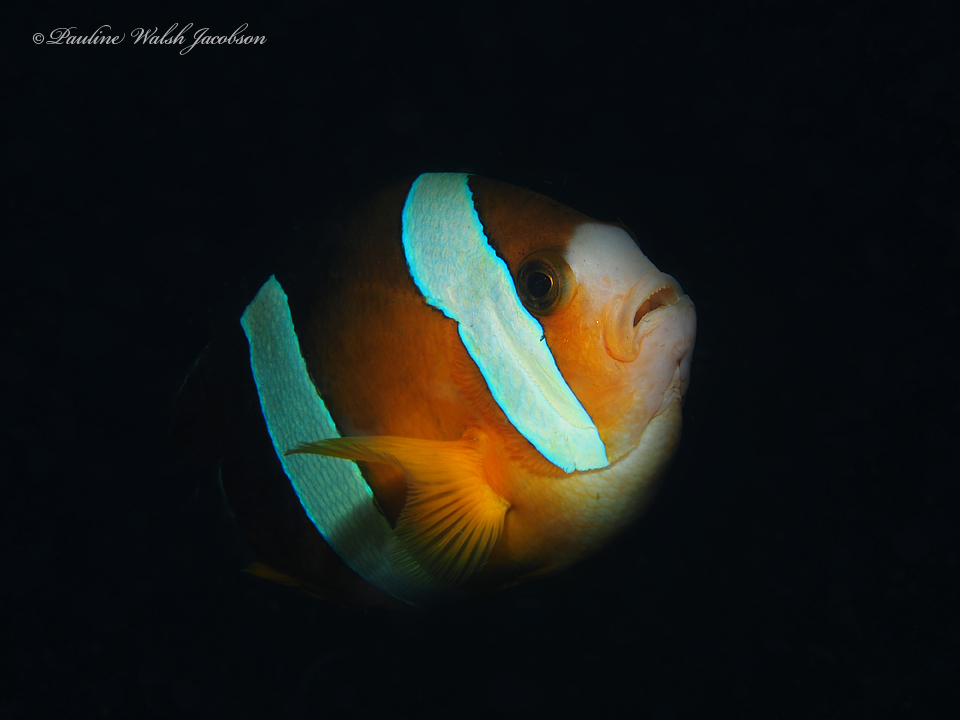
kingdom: Animalia
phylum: Chordata
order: Perciformes
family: Pomacentridae
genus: Amphiprion
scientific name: Amphiprion clarkii
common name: Clark's anemonefish
